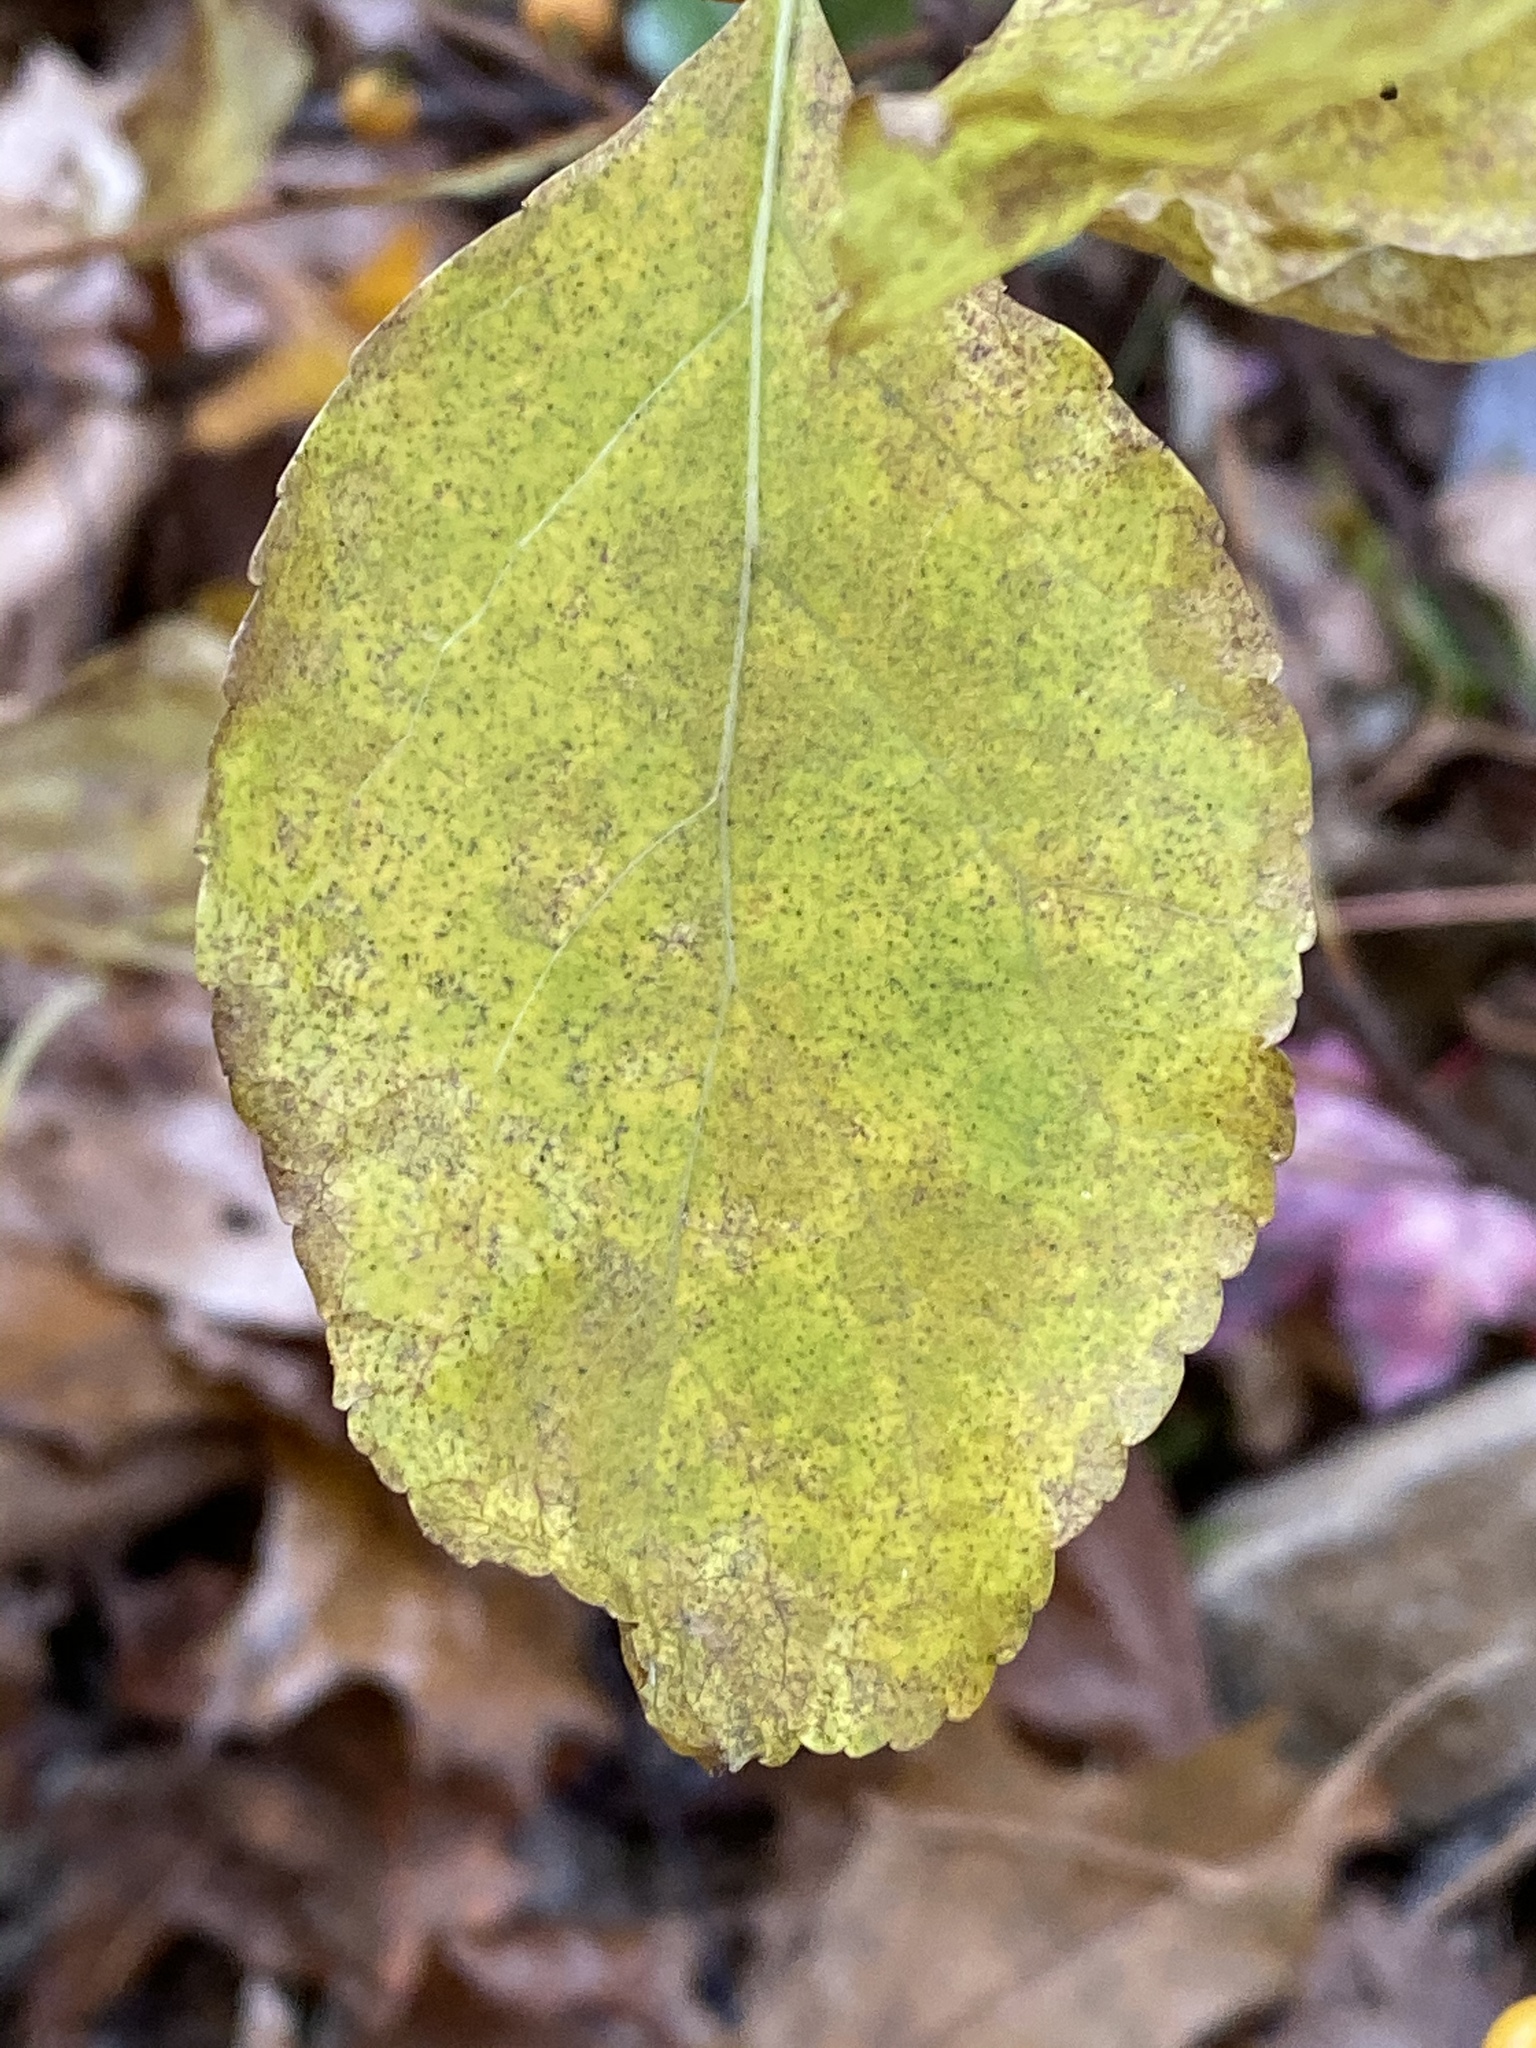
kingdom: Plantae
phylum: Tracheophyta
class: Magnoliopsida
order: Celastrales
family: Celastraceae
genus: Celastrus
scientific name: Celastrus orbiculatus
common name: Oriental bittersweet
